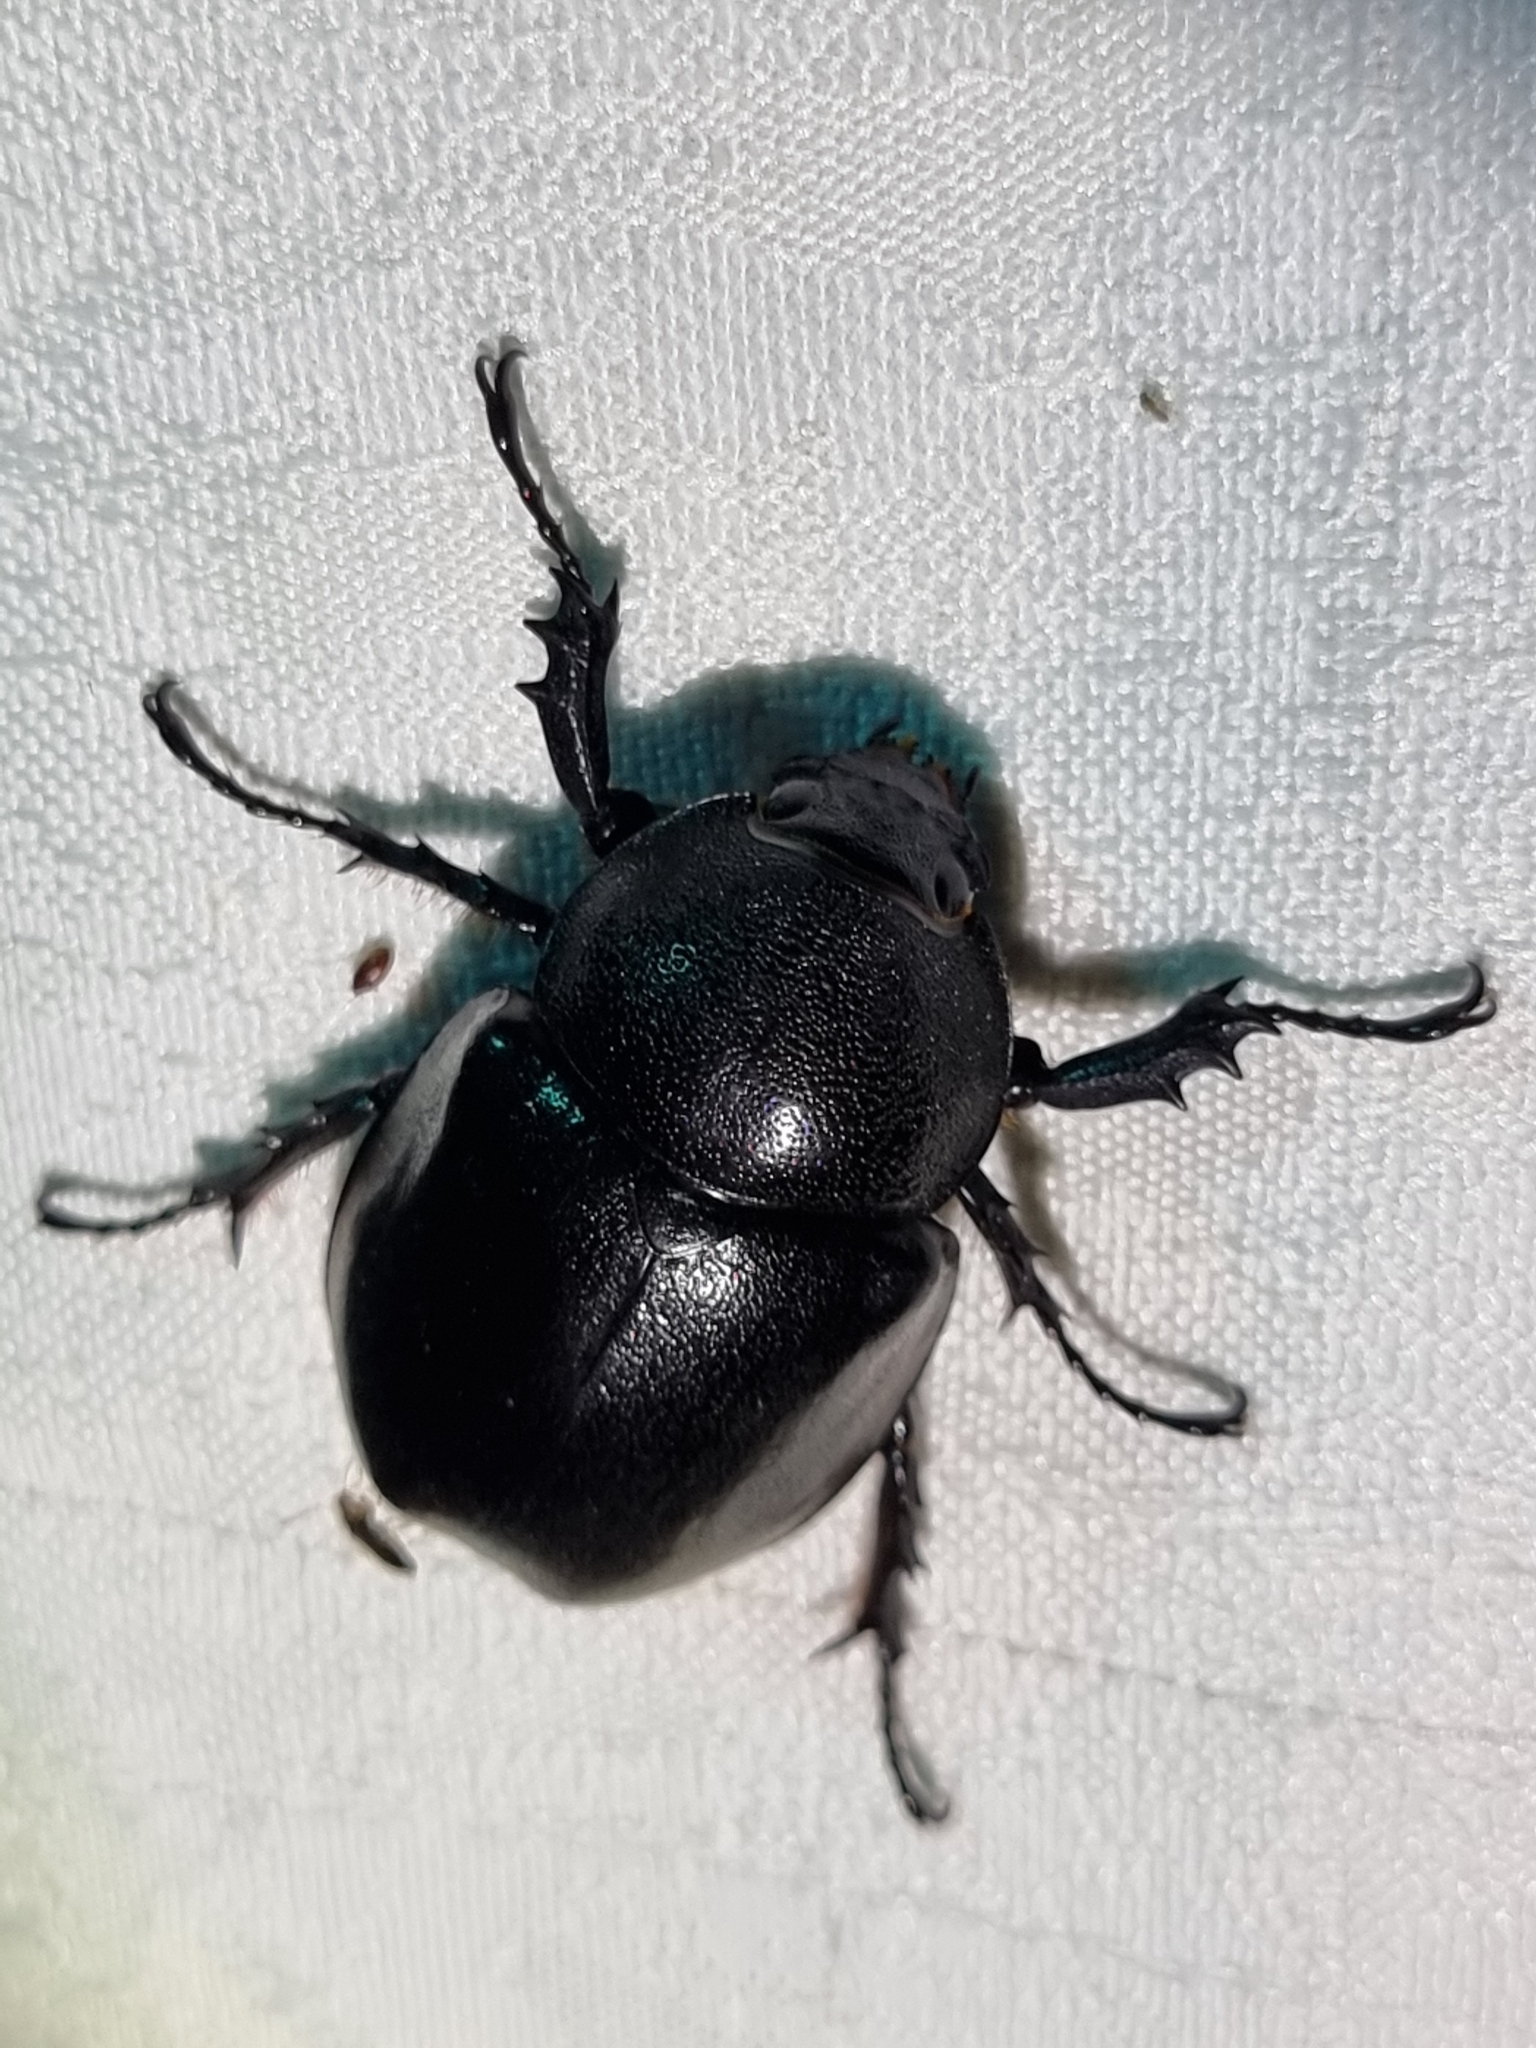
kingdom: Animalia
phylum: Arthropoda
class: Insecta
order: Coleoptera
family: Scarabaeidae
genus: Xylotrupes
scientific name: Xylotrupes australicus
